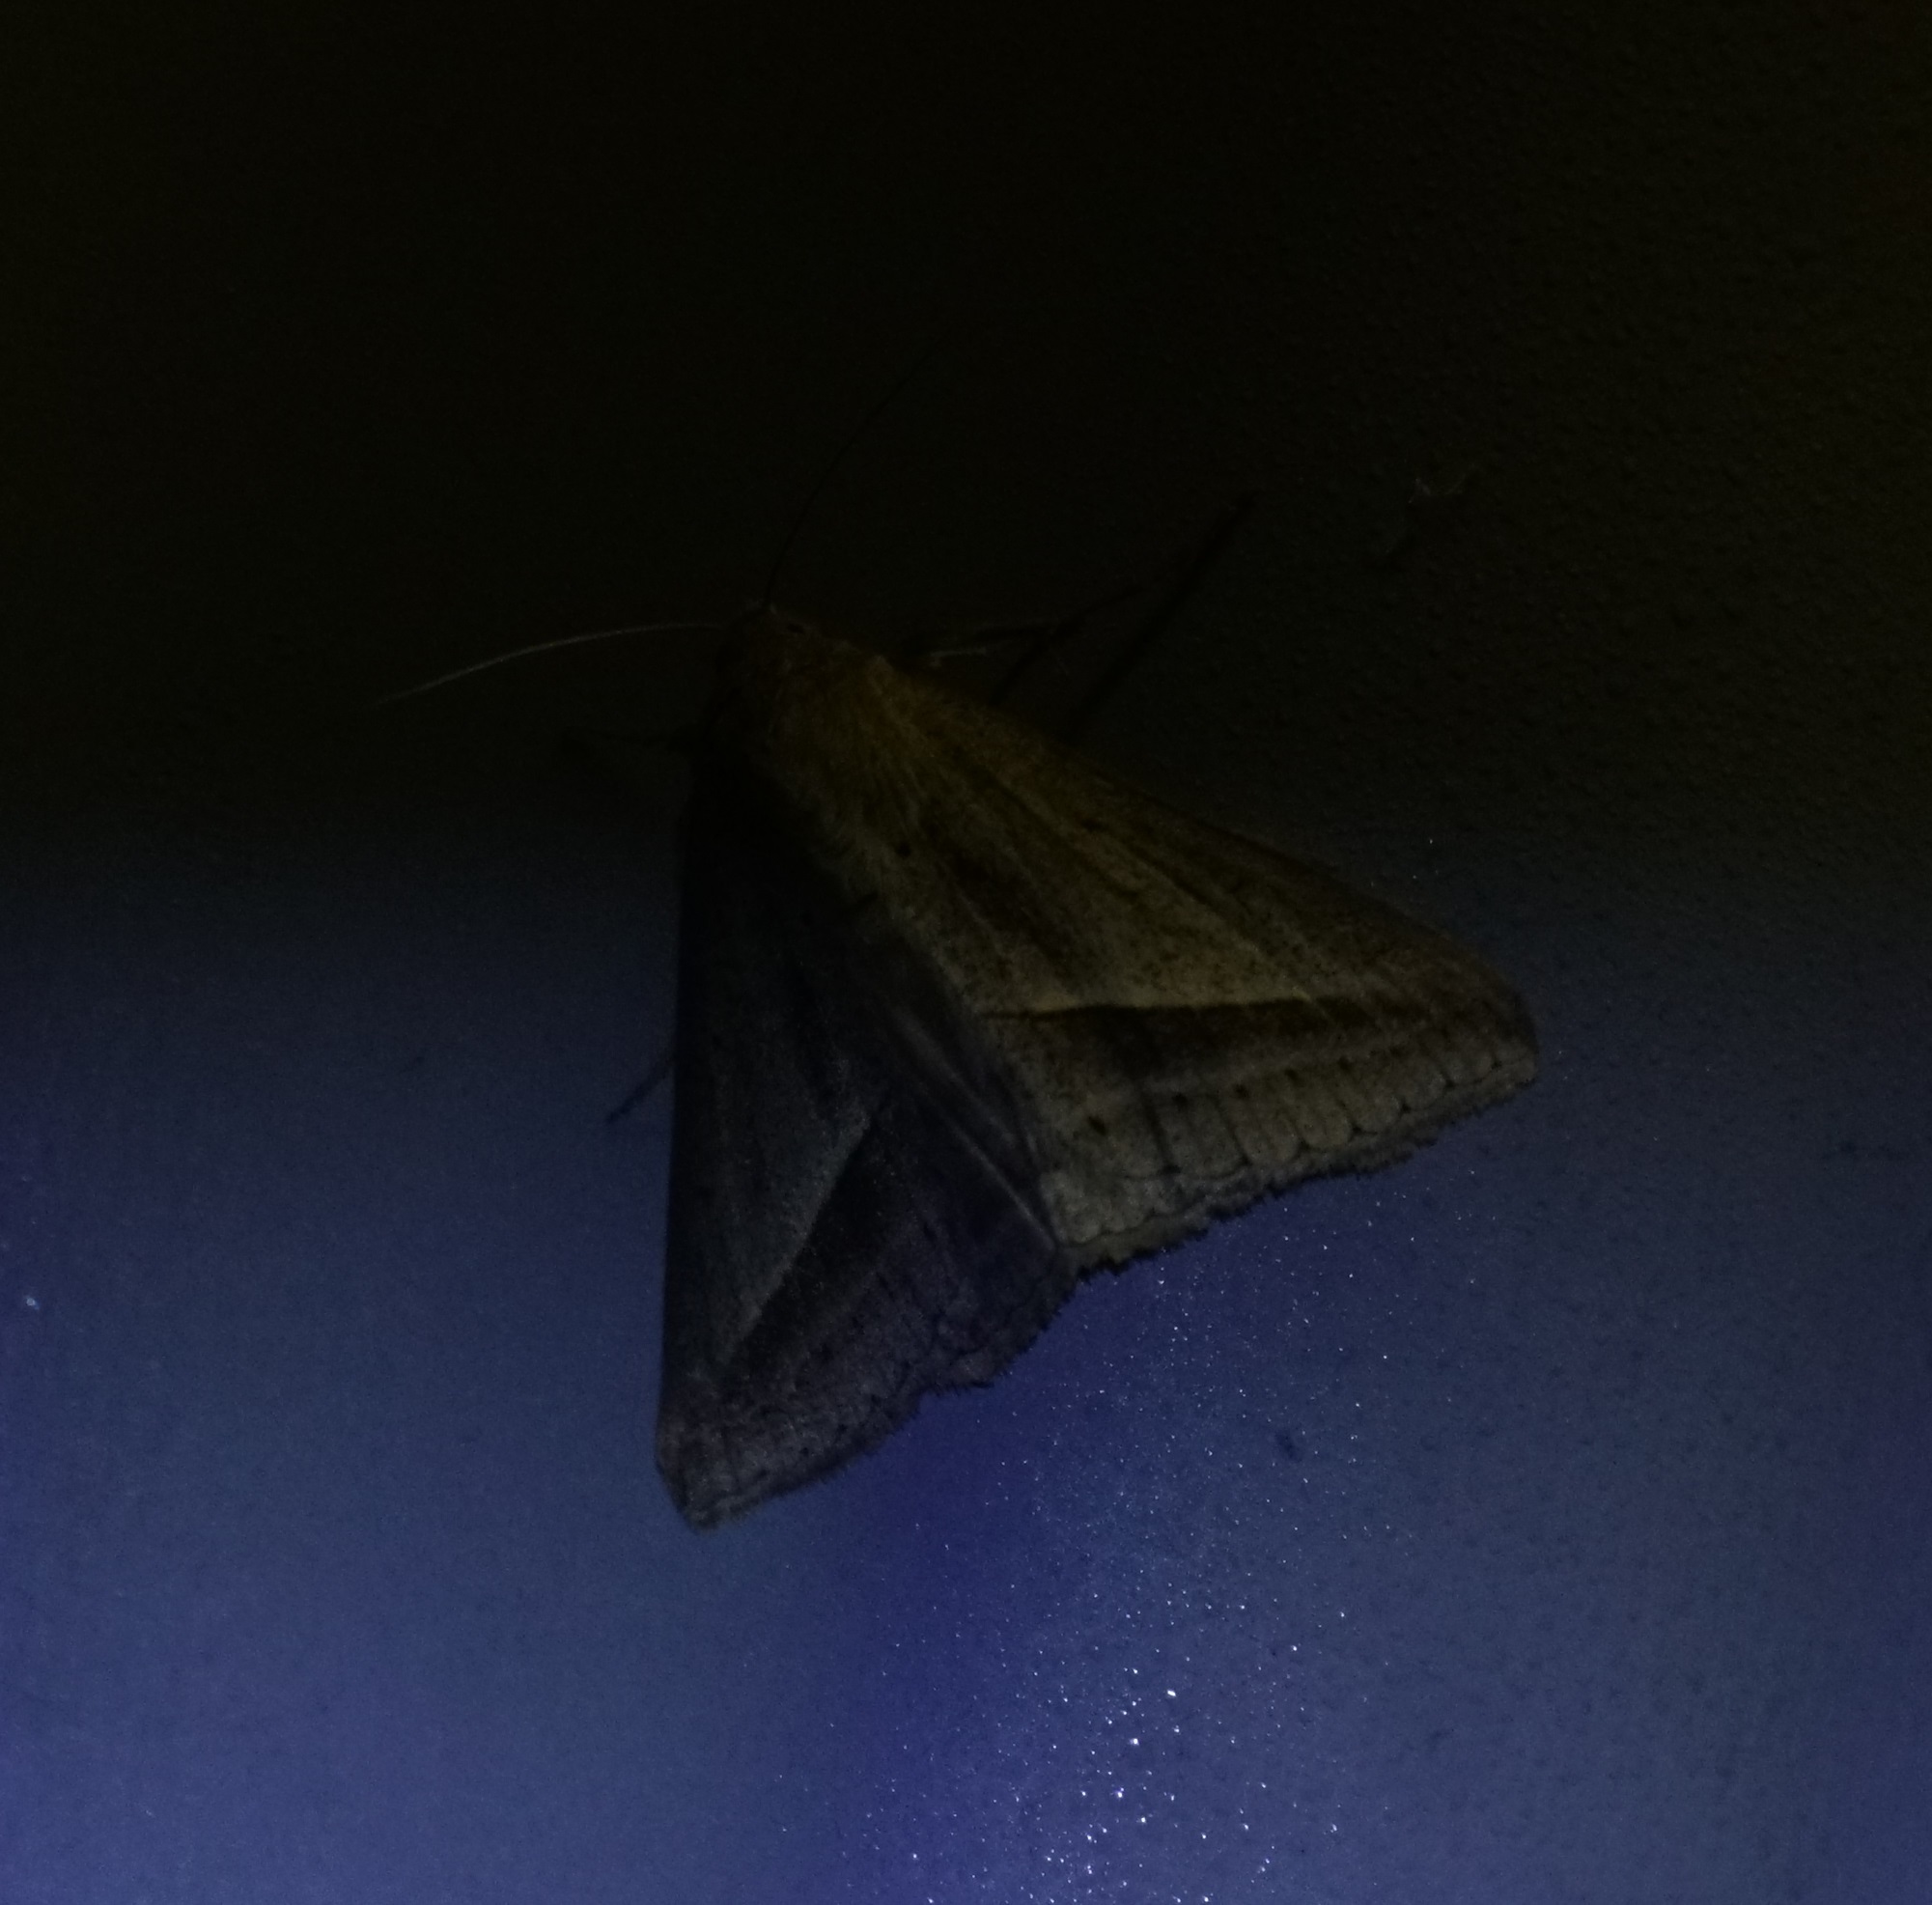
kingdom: Animalia
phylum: Arthropoda
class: Insecta
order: Lepidoptera
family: Erebidae
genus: Mocis
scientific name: Mocis frugalis
